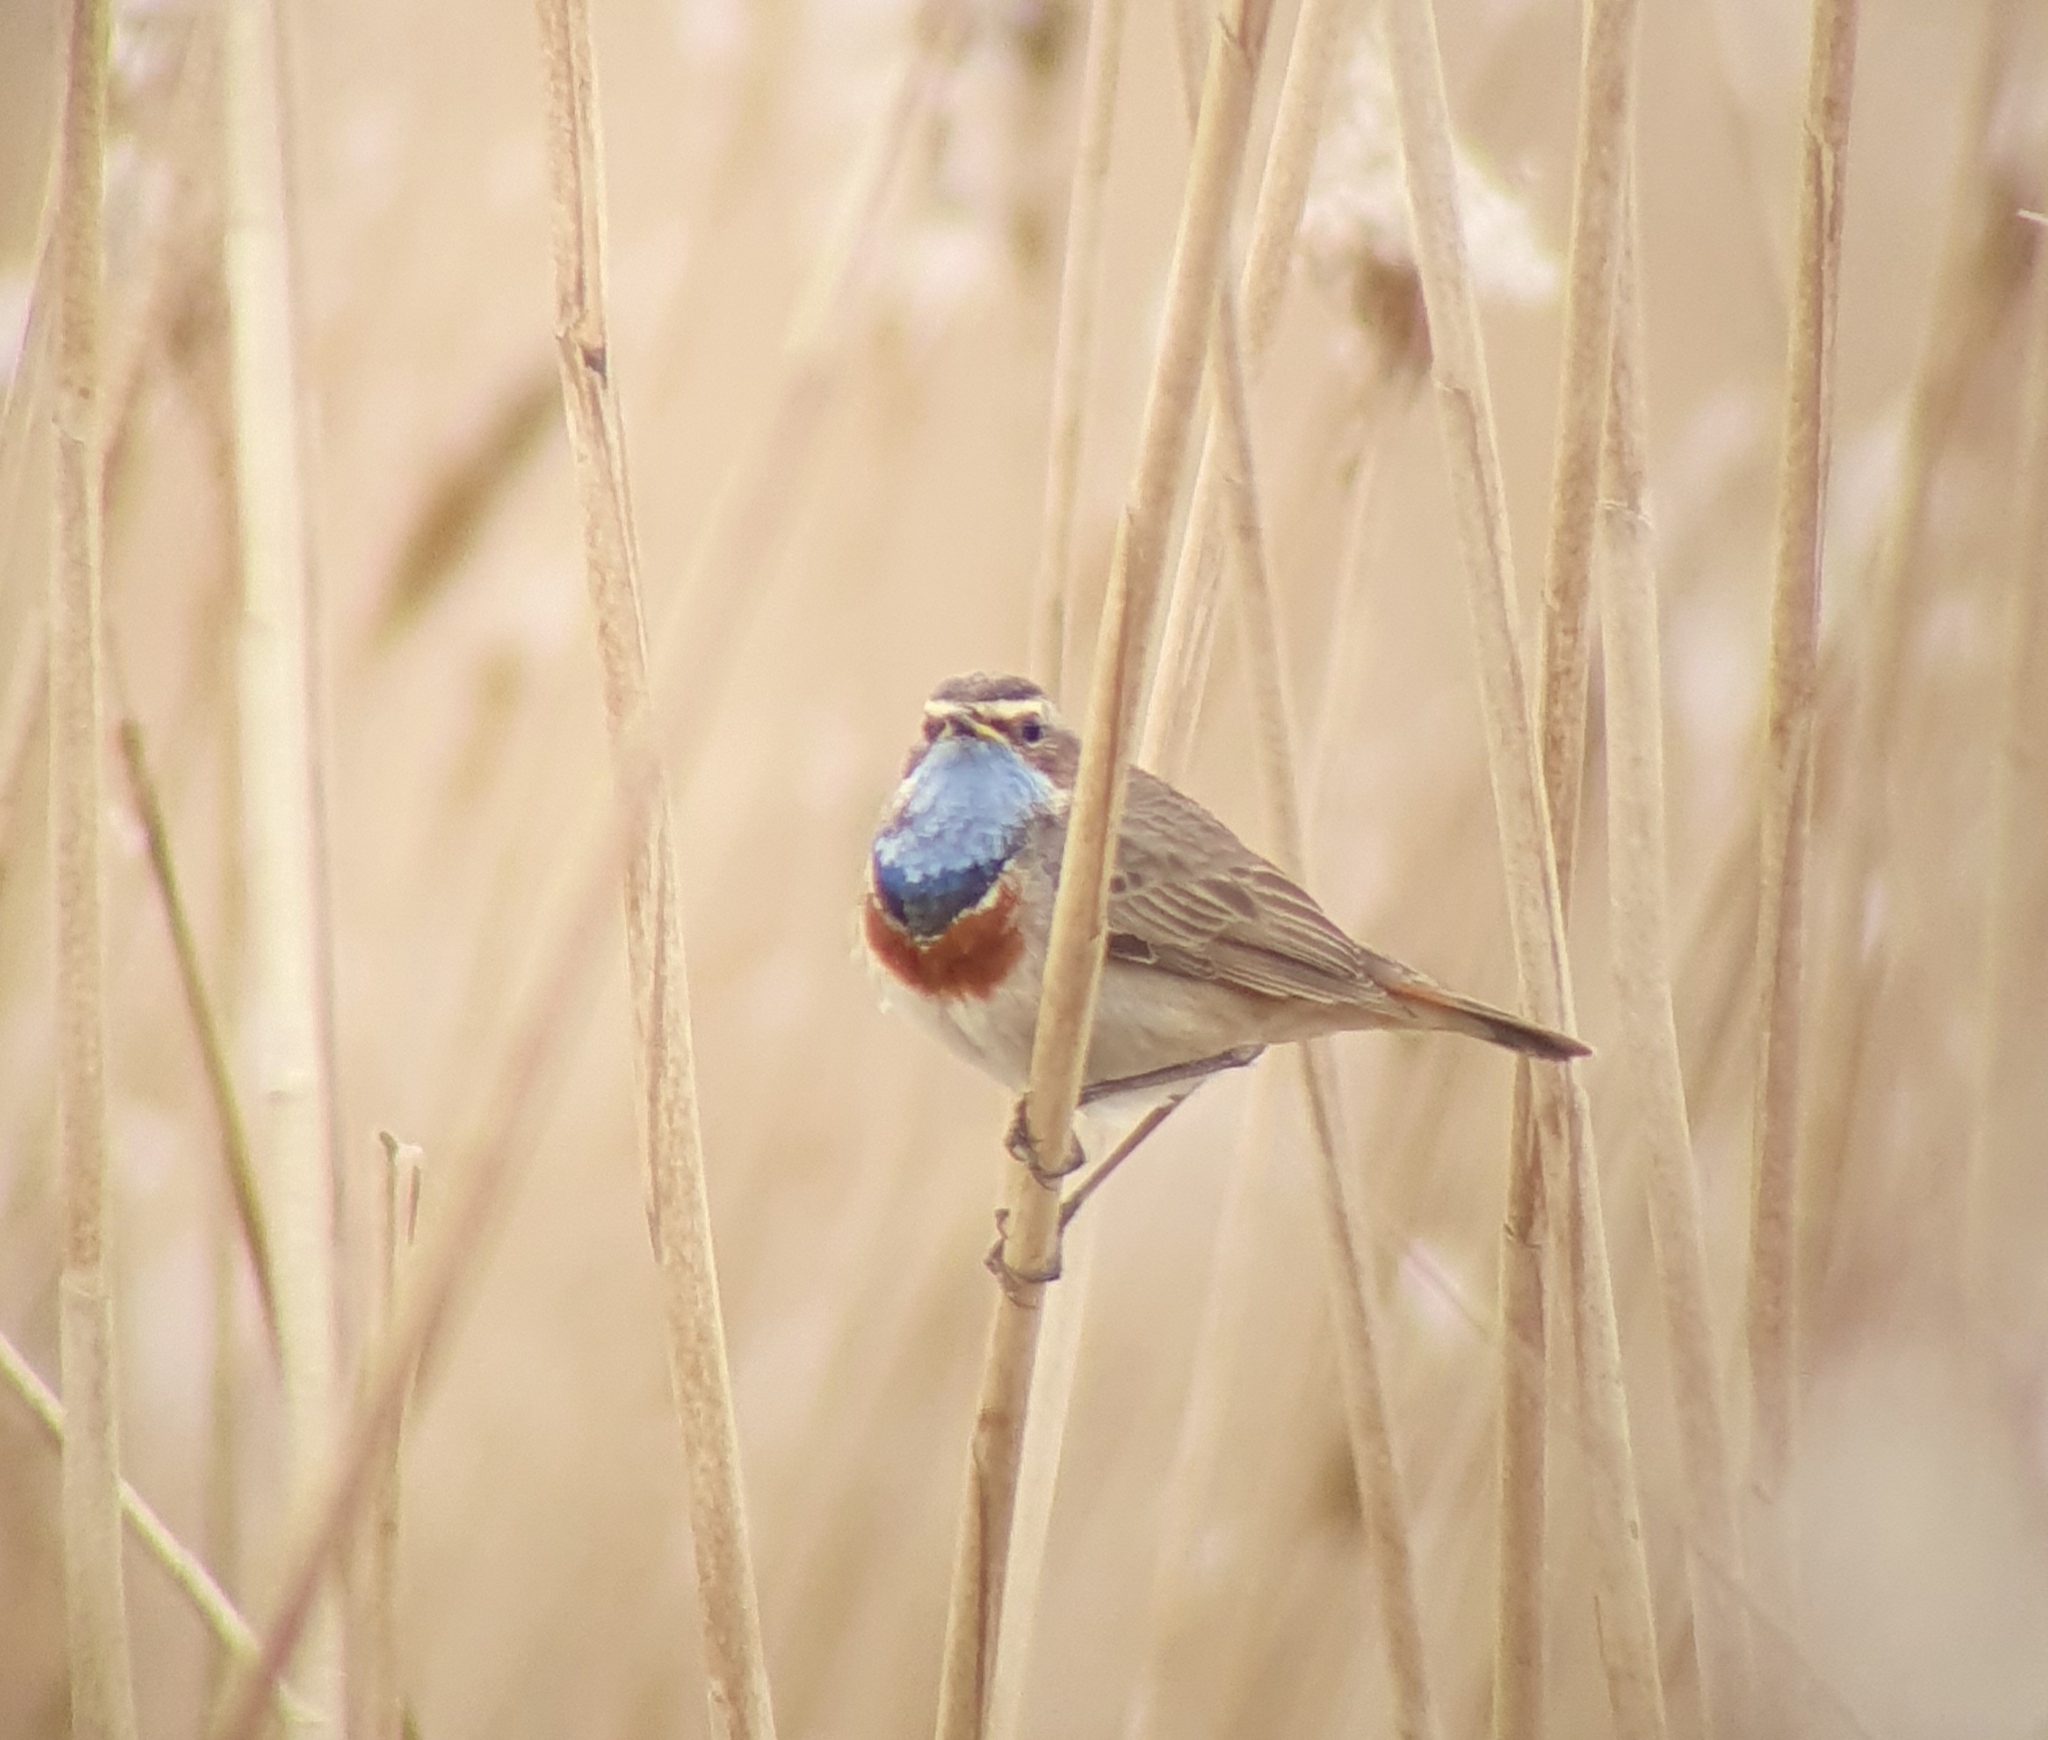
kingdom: Animalia
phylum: Chordata
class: Aves
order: Passeriformes
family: Muscicapidae
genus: Luscinia
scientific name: Luscinia svecica
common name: Bluethroat
